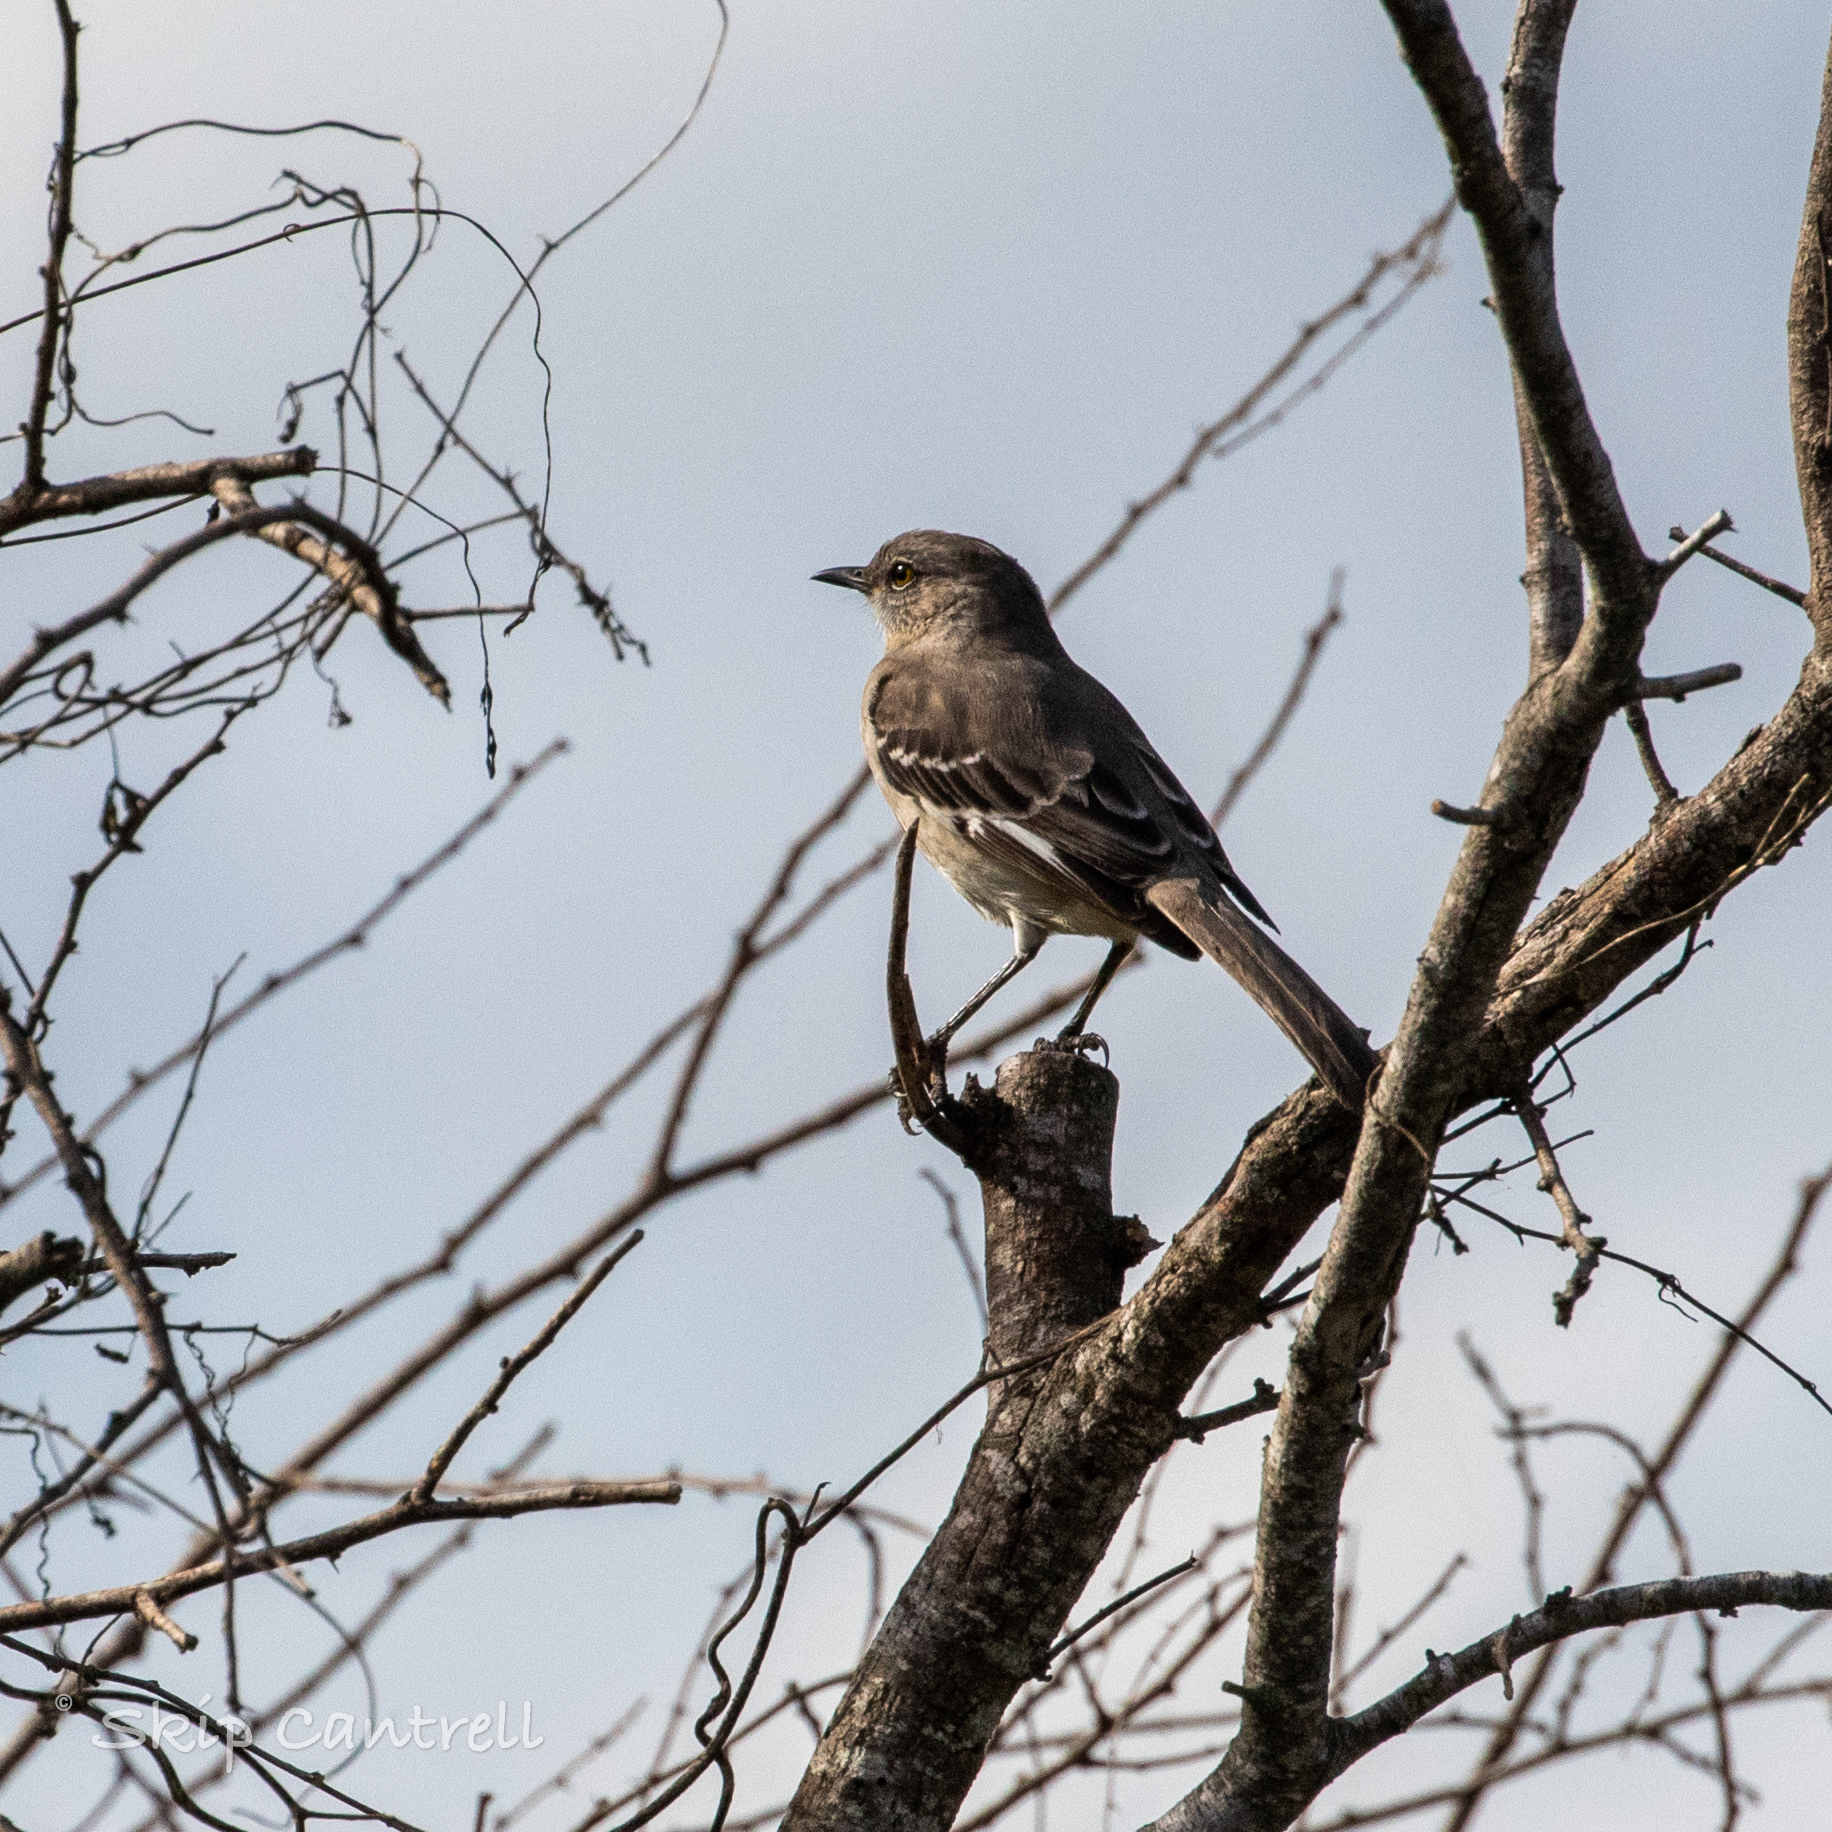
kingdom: Animalia
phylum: Chordata
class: Aves
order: Passeriformes
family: Mimidae
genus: Mimus
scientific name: Mimus polyglottos
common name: Northern mockingbird
